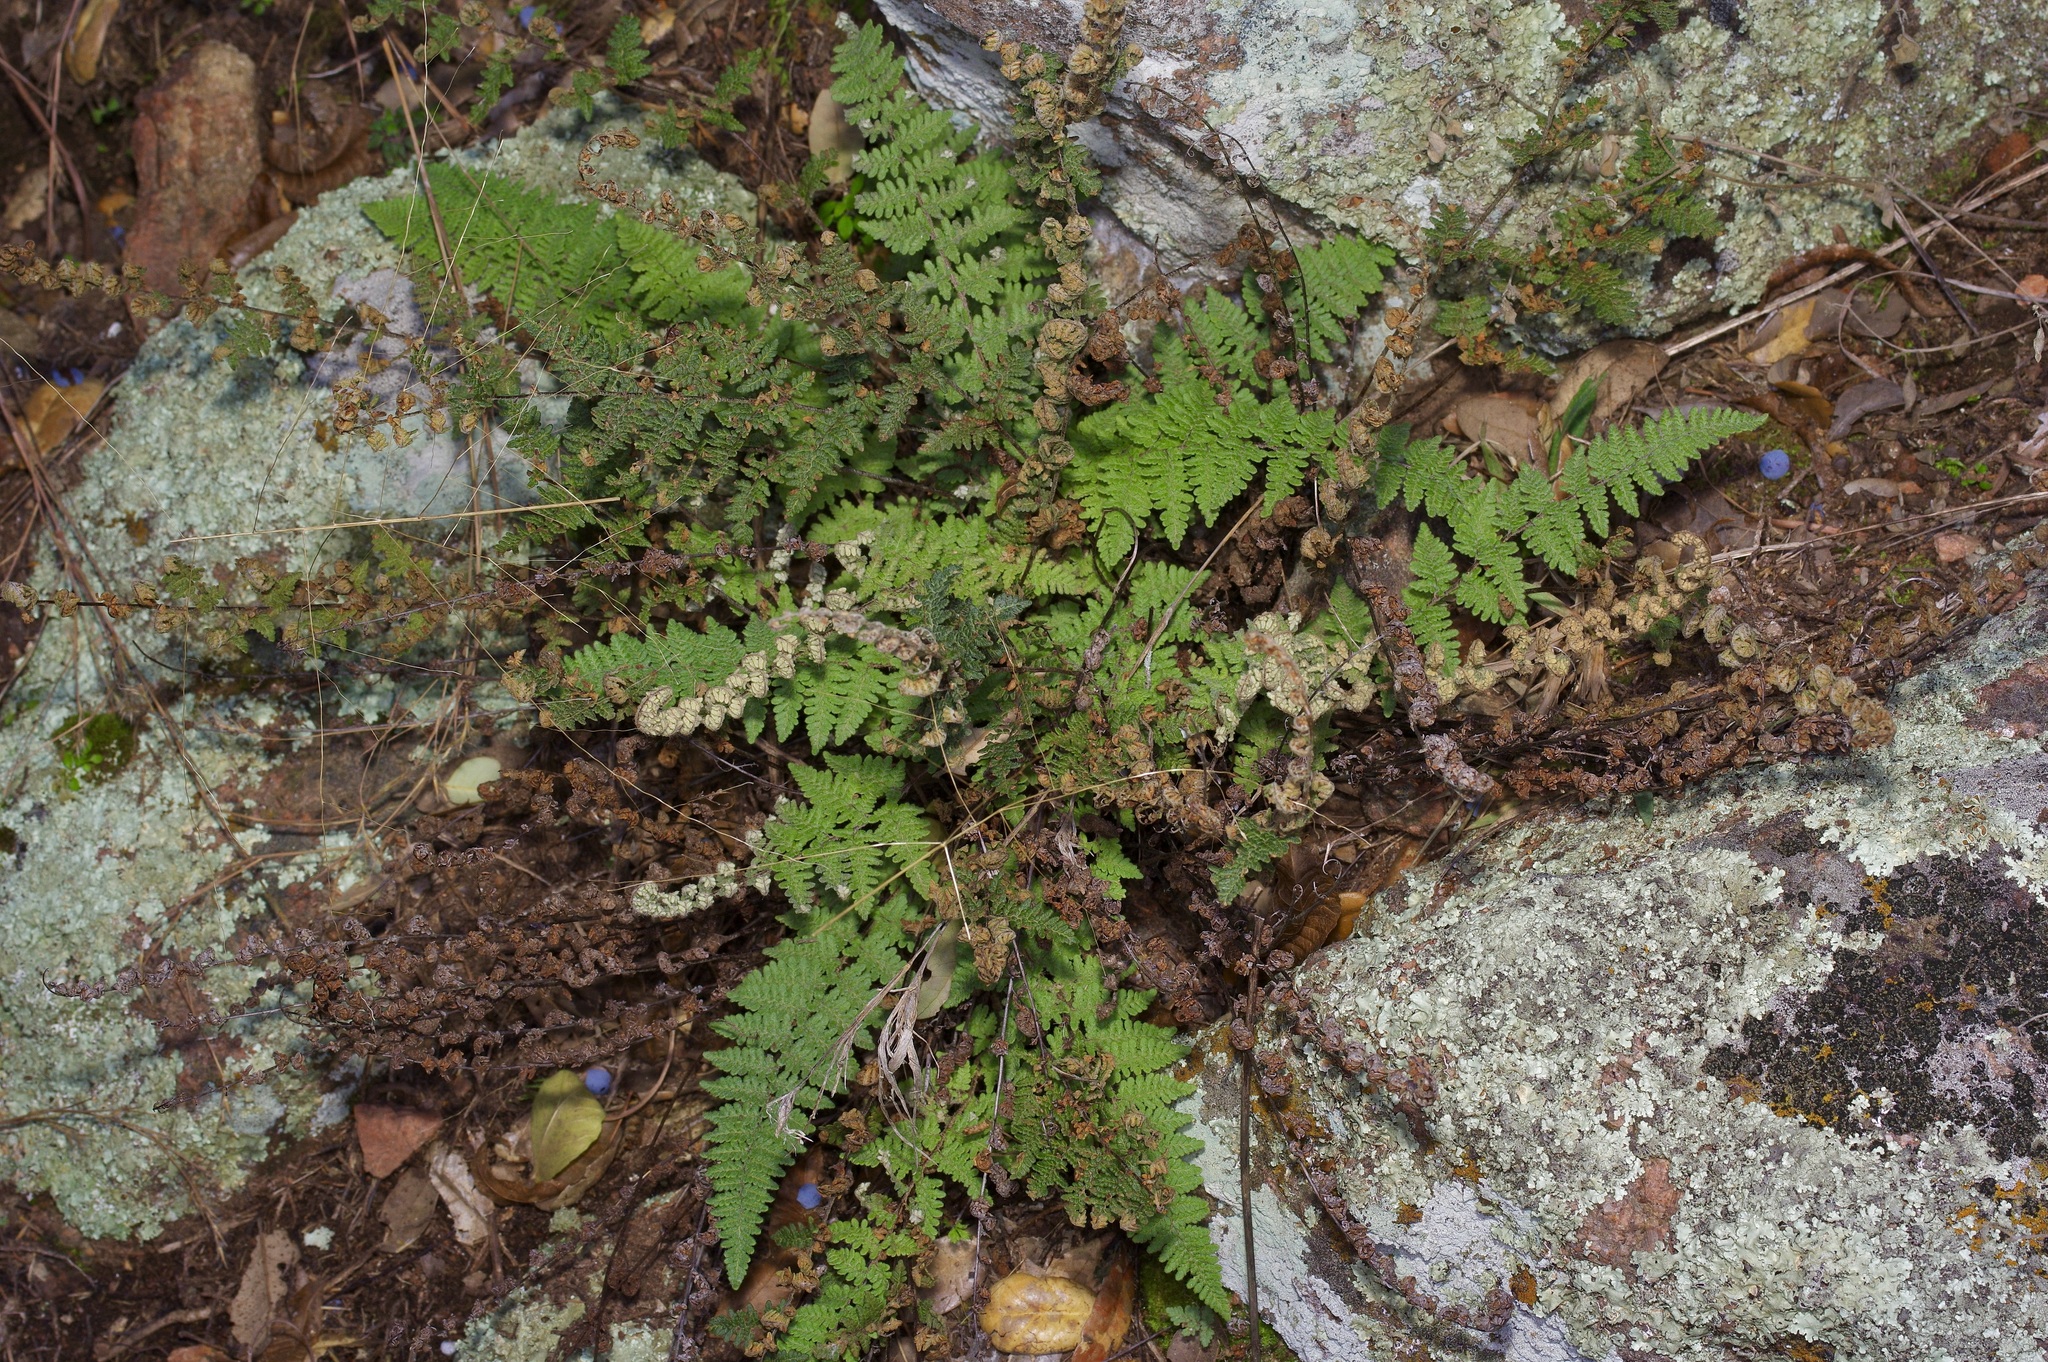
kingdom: Plantae
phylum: Tracheophyta
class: Polypodiopsida
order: Polypodiales
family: Pteridaceae
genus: Myriopteris
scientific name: Myriopteris tomentosa
